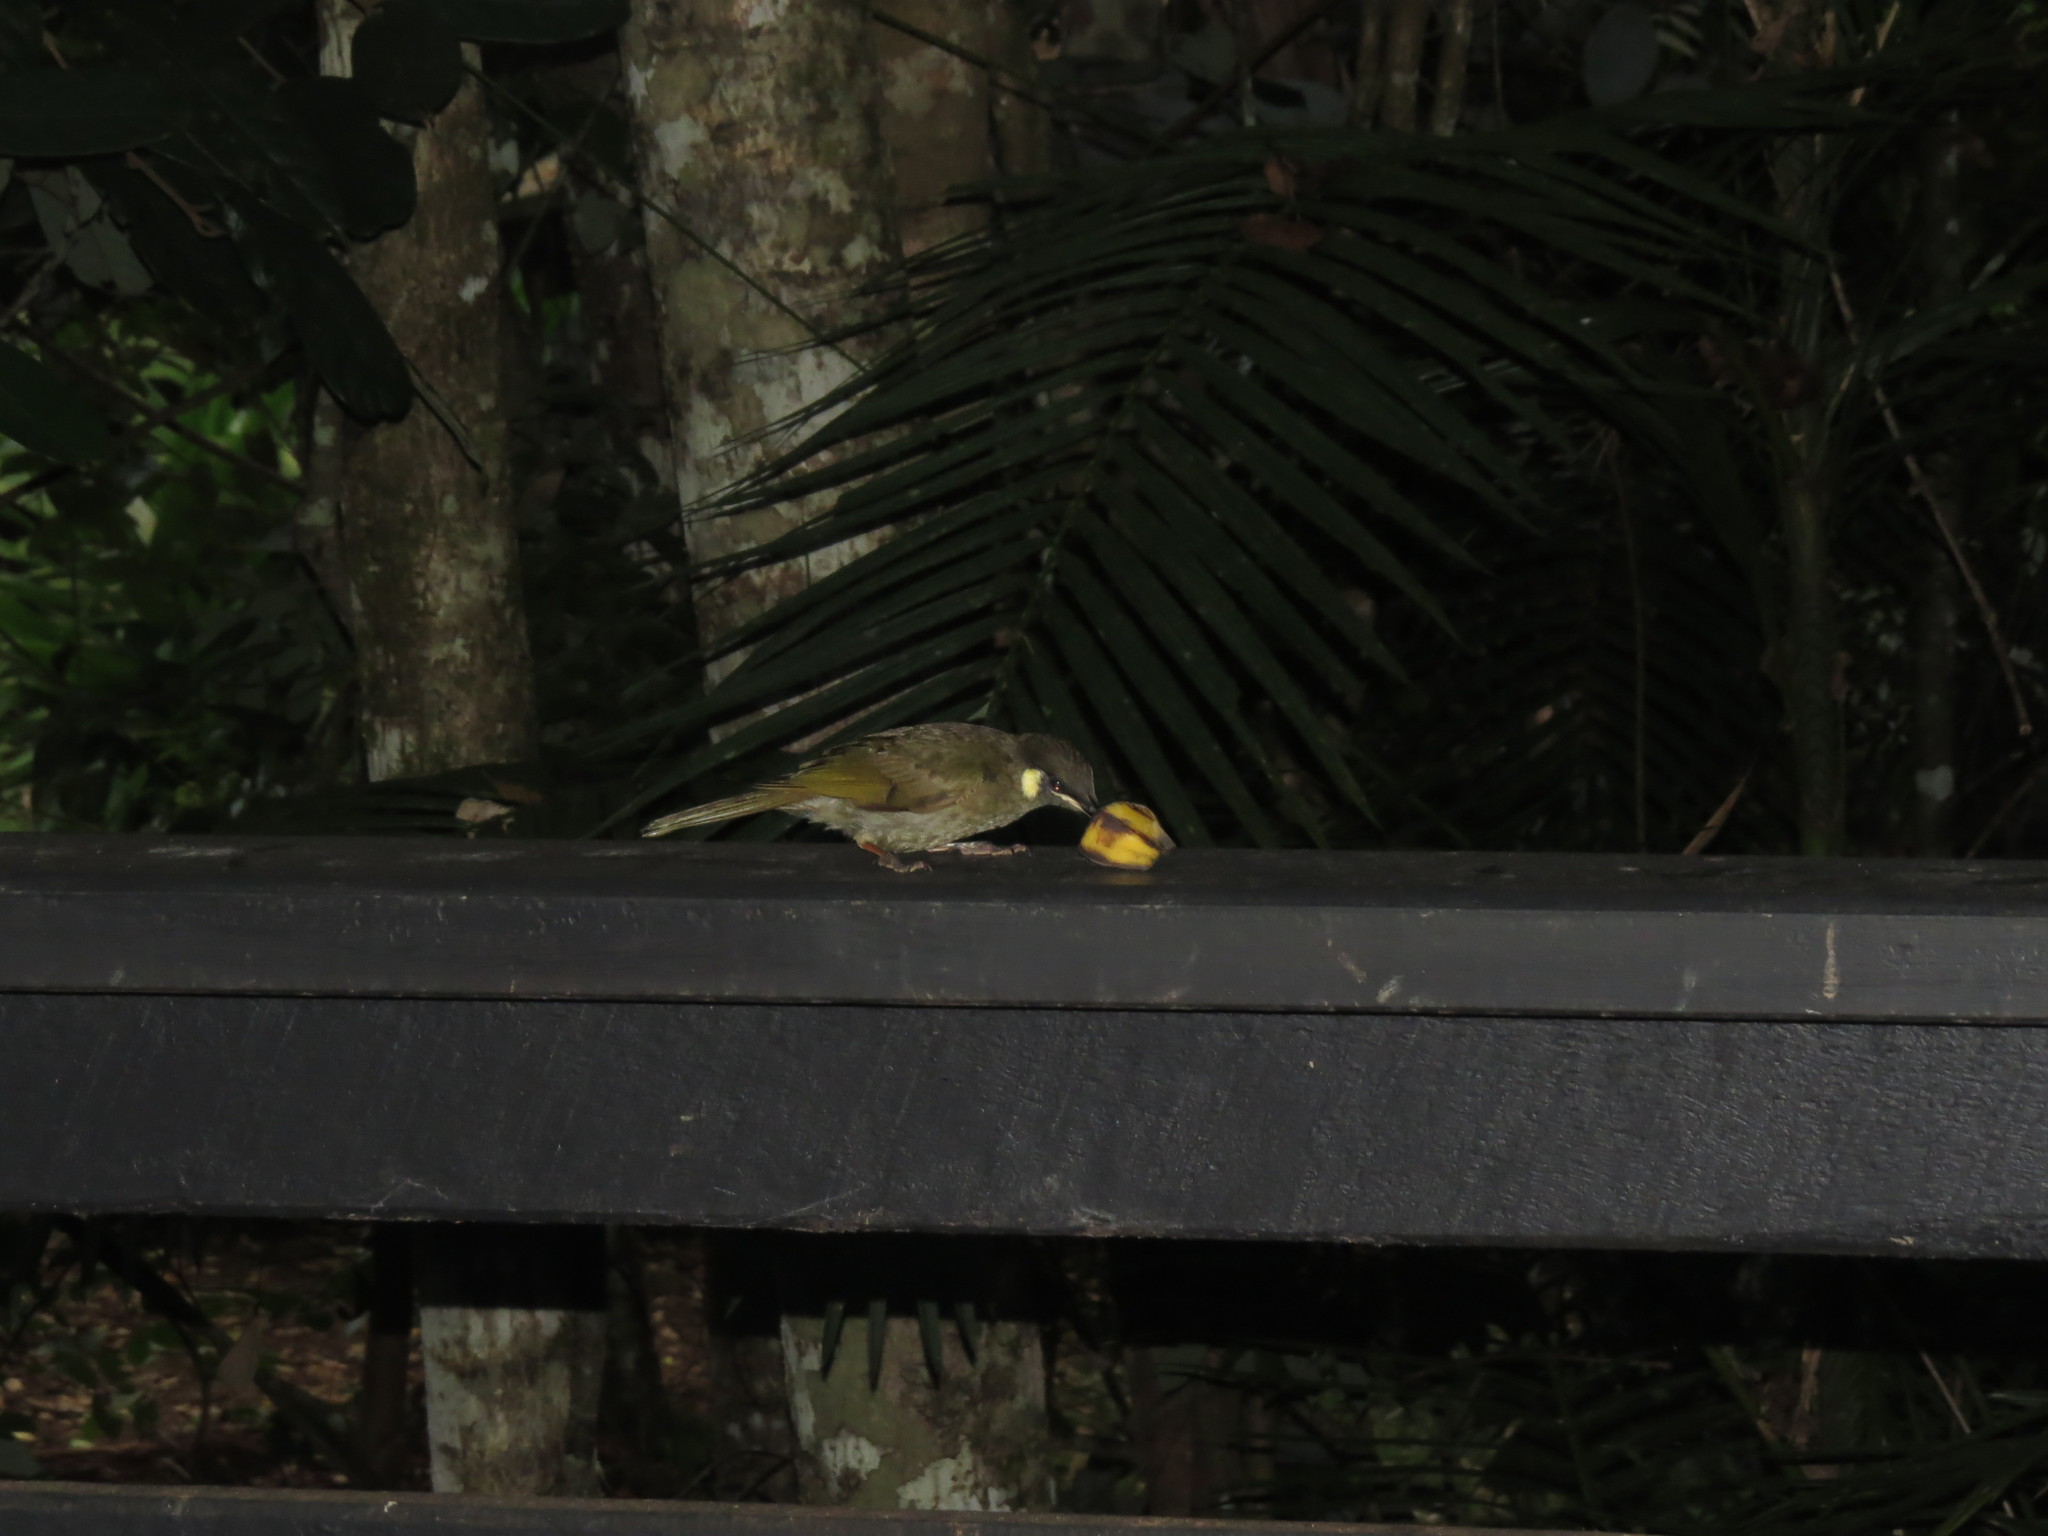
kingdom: Animalia
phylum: Chordata
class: Aves
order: Passeriformes
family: Meliphagidae
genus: Meliphaga
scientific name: Meliphaga lewinii
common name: Lewin's honeyeater
